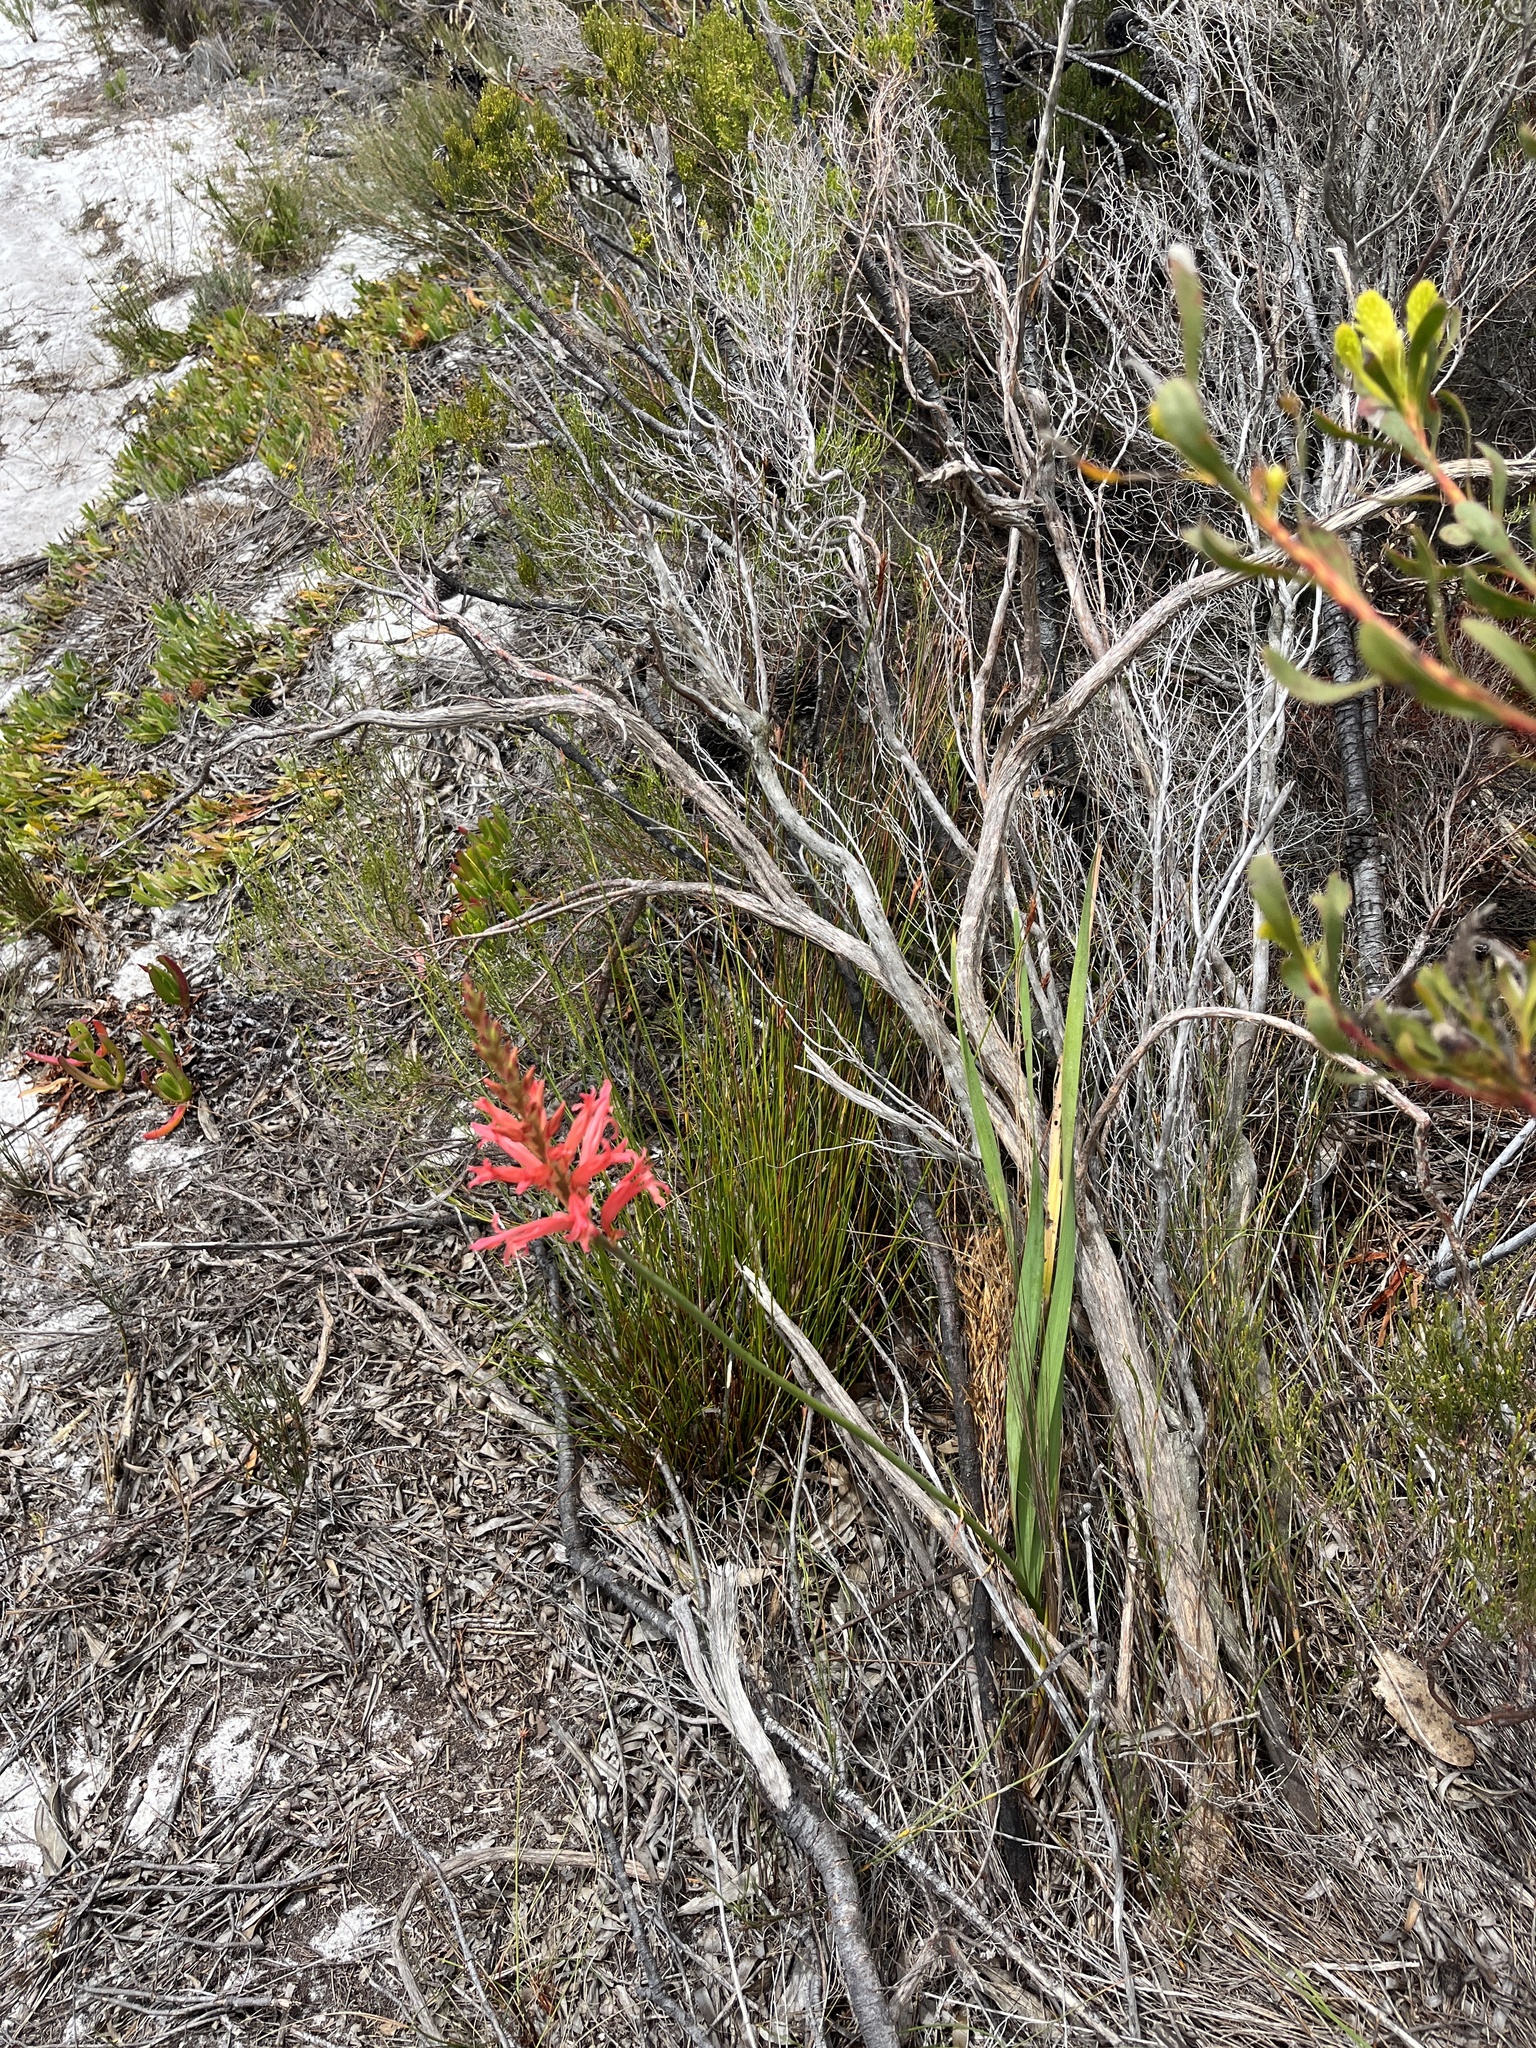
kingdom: Plantae
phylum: Tracheophyta
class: Liliopsida
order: Asparagales
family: Iridaceae
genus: Tritoniopsis
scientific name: Tritoniopsis antholyza
